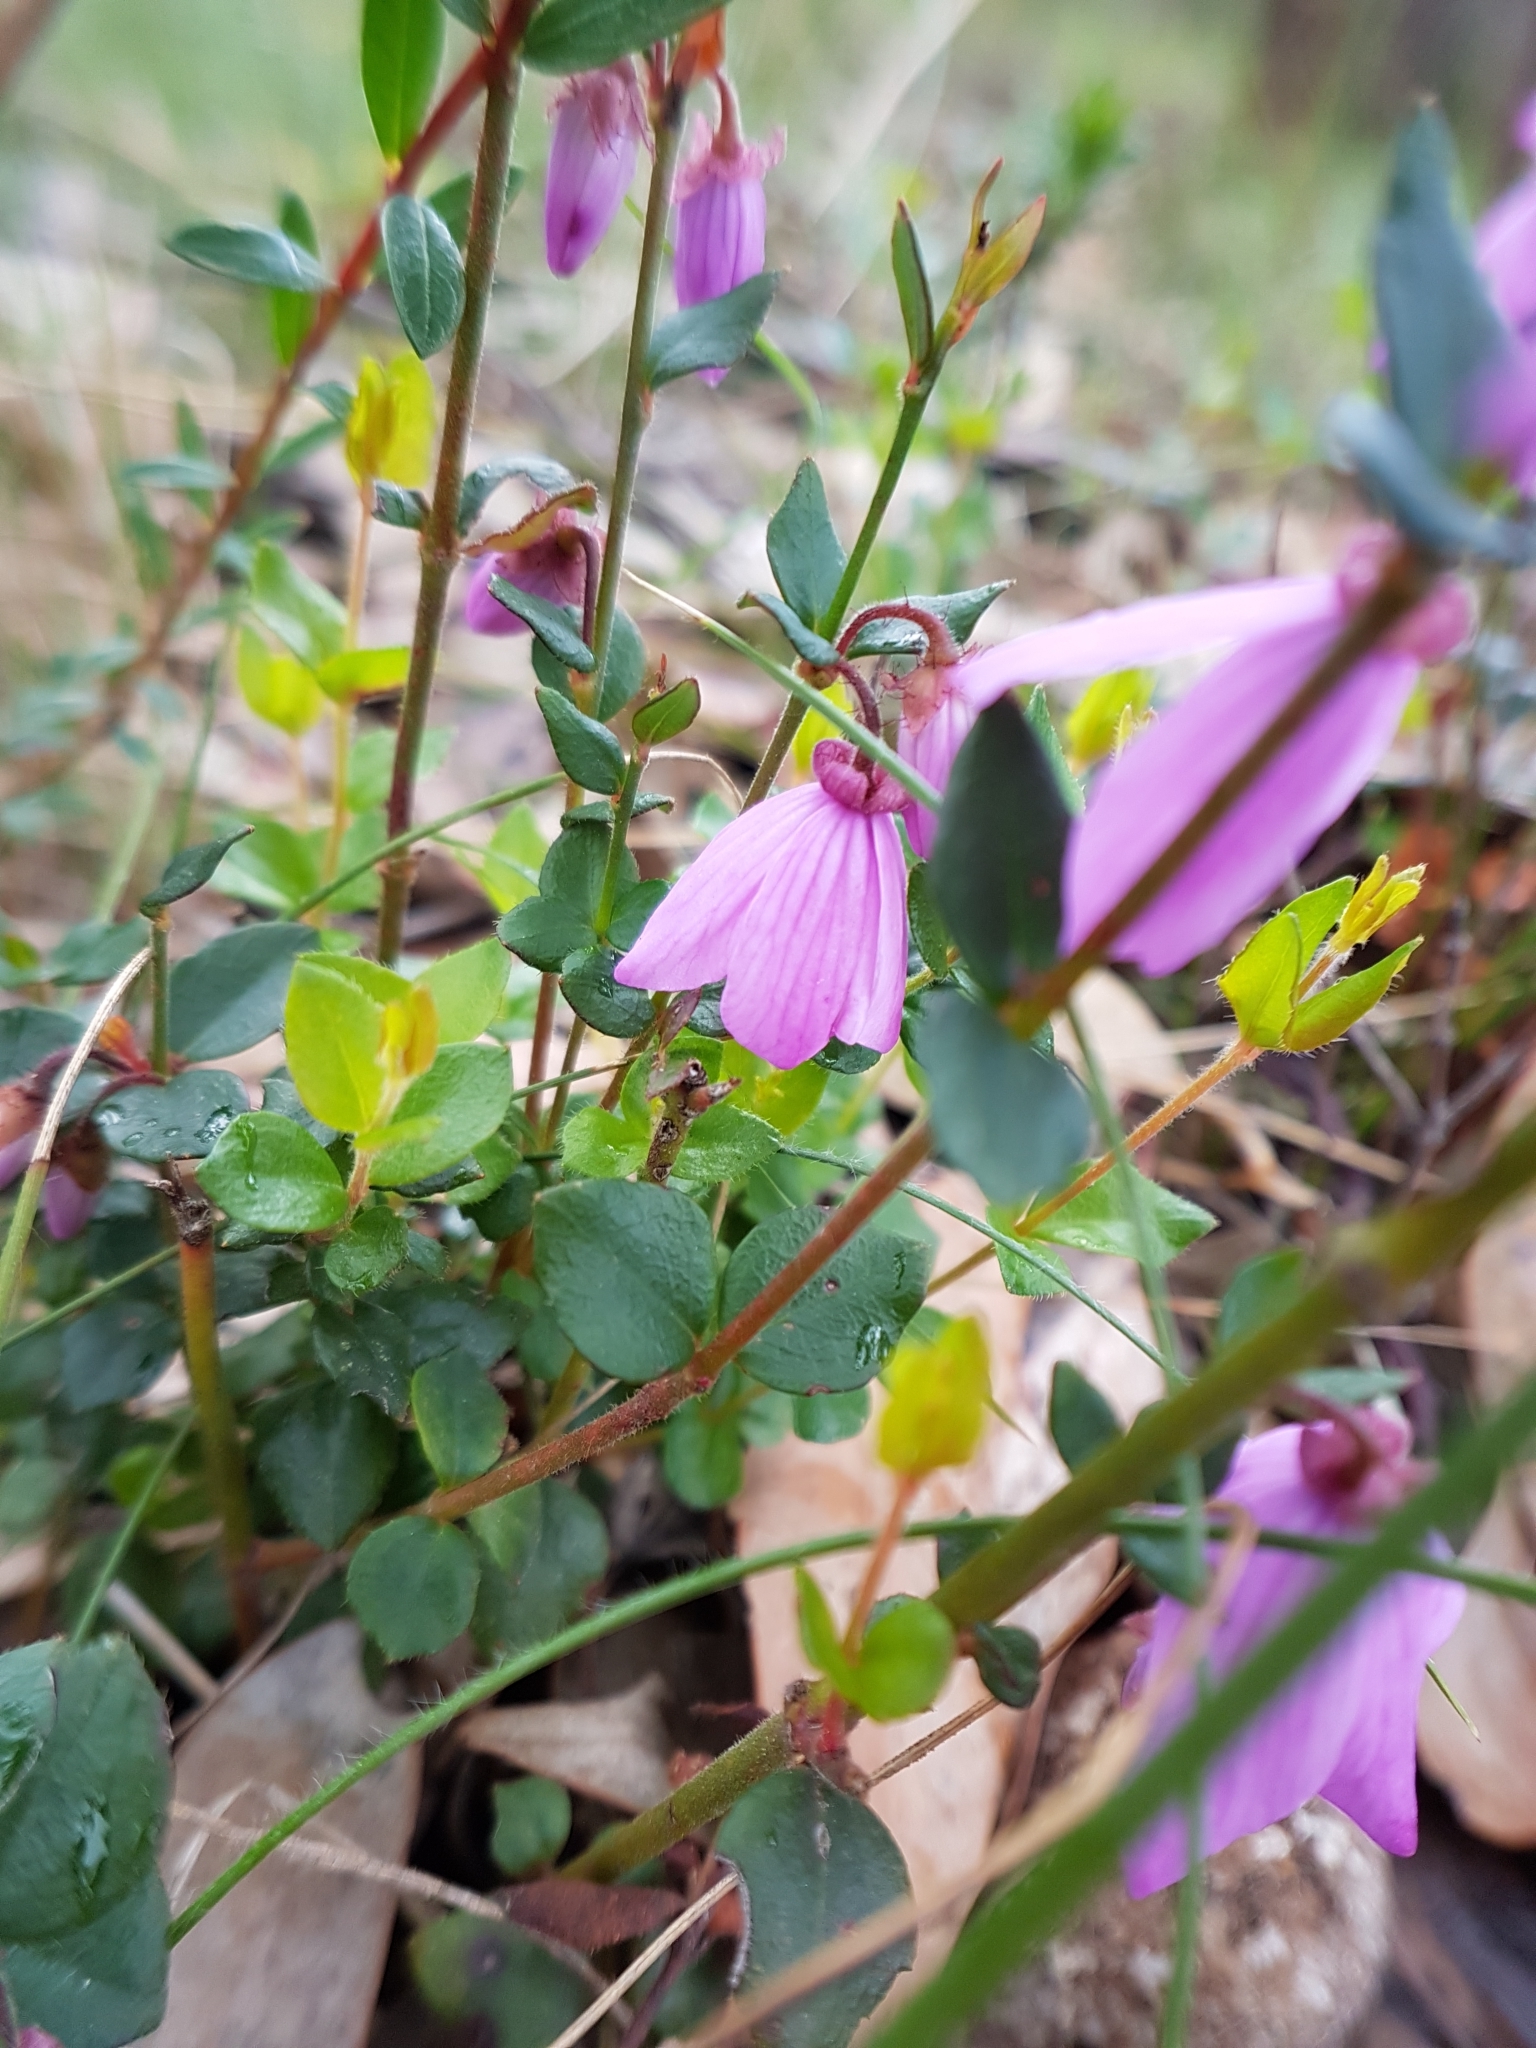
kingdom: Plantae
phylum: Tracheophyta
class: Magnoliopsida
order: Oxalidales
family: Elaeocarpaceae
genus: Tetratheca
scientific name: Tetratheca ciliata
